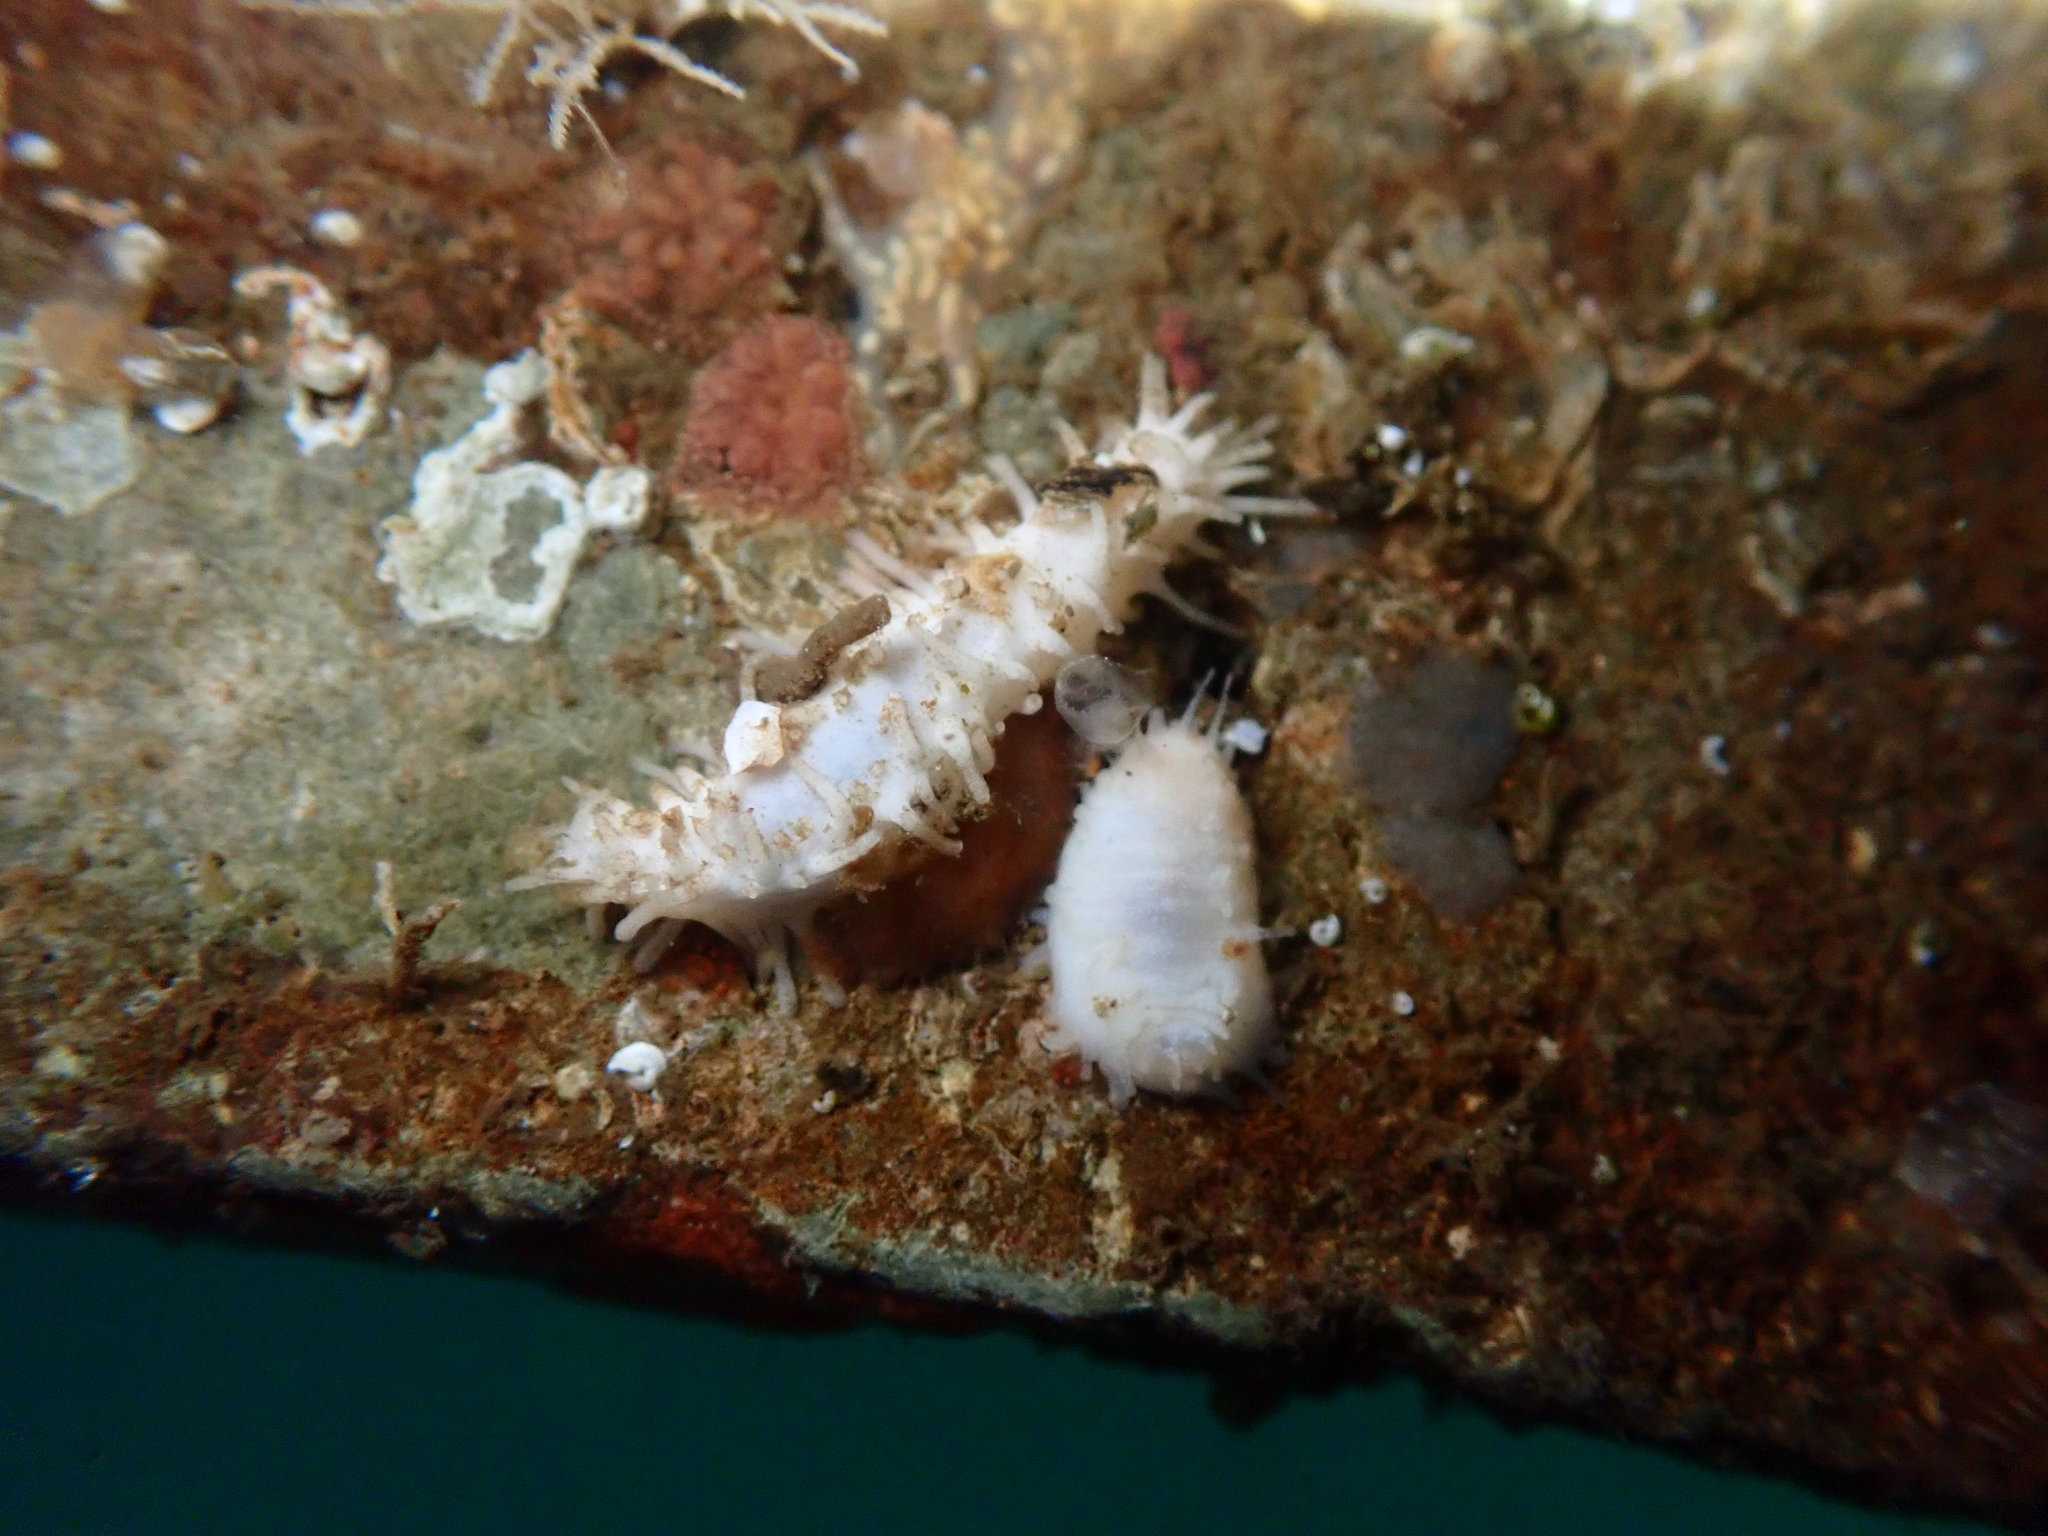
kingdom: Animalia
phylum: Echinodermata
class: Holothuroidea
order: Dendrochirotida
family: Sclerodactylidae
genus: Eupentacta
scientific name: Eupentacta quinquesemita
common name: Pentamerous sea cucumber
